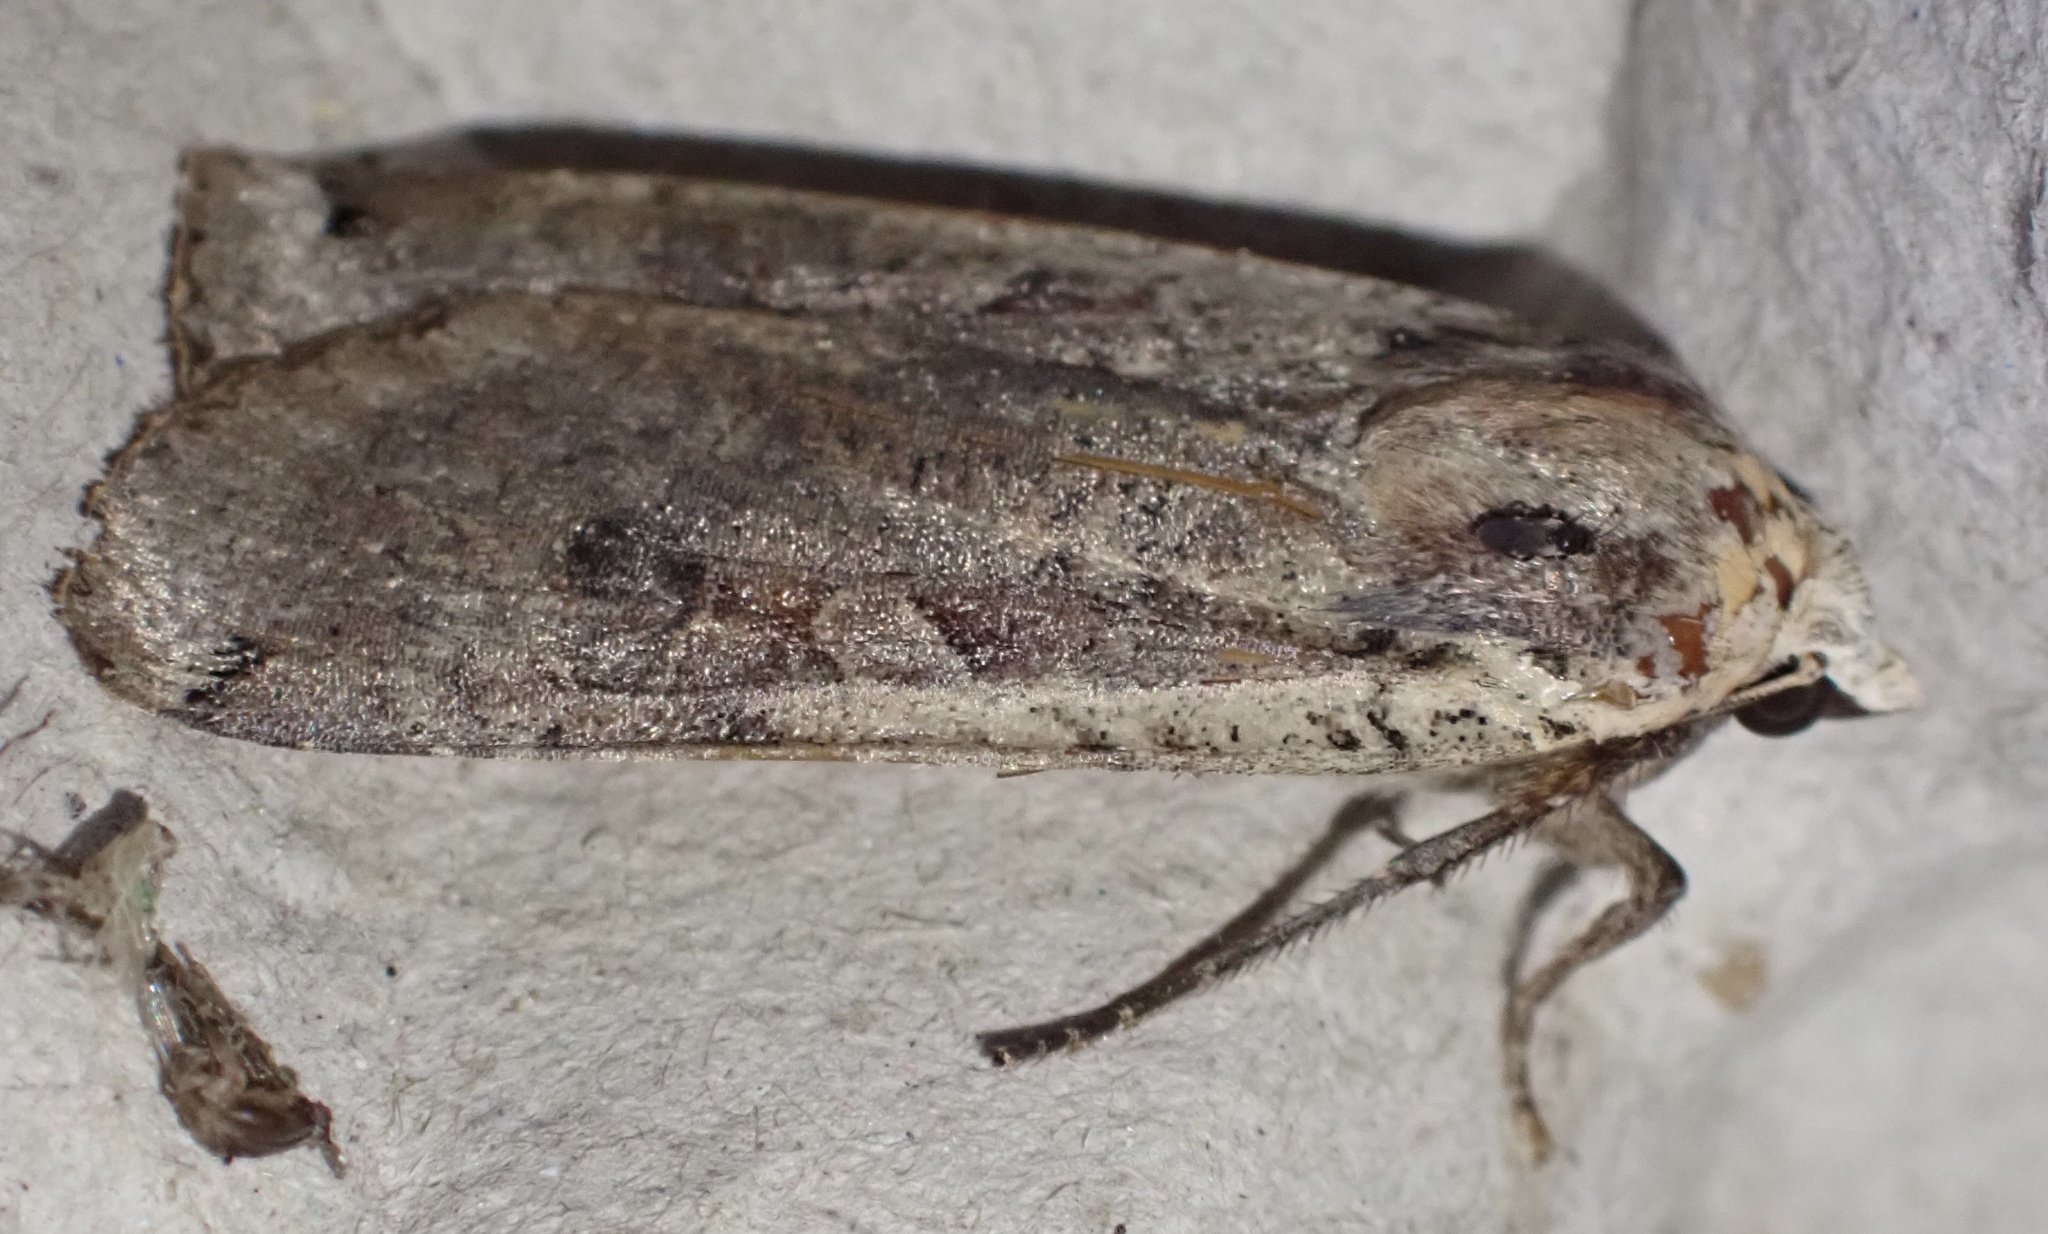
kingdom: Animalia
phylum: Arthropoda
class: Insecta
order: Lepidoptera
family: Noctuidae
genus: Noctua
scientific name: Noctua pronuba
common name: Large yellow underwing
